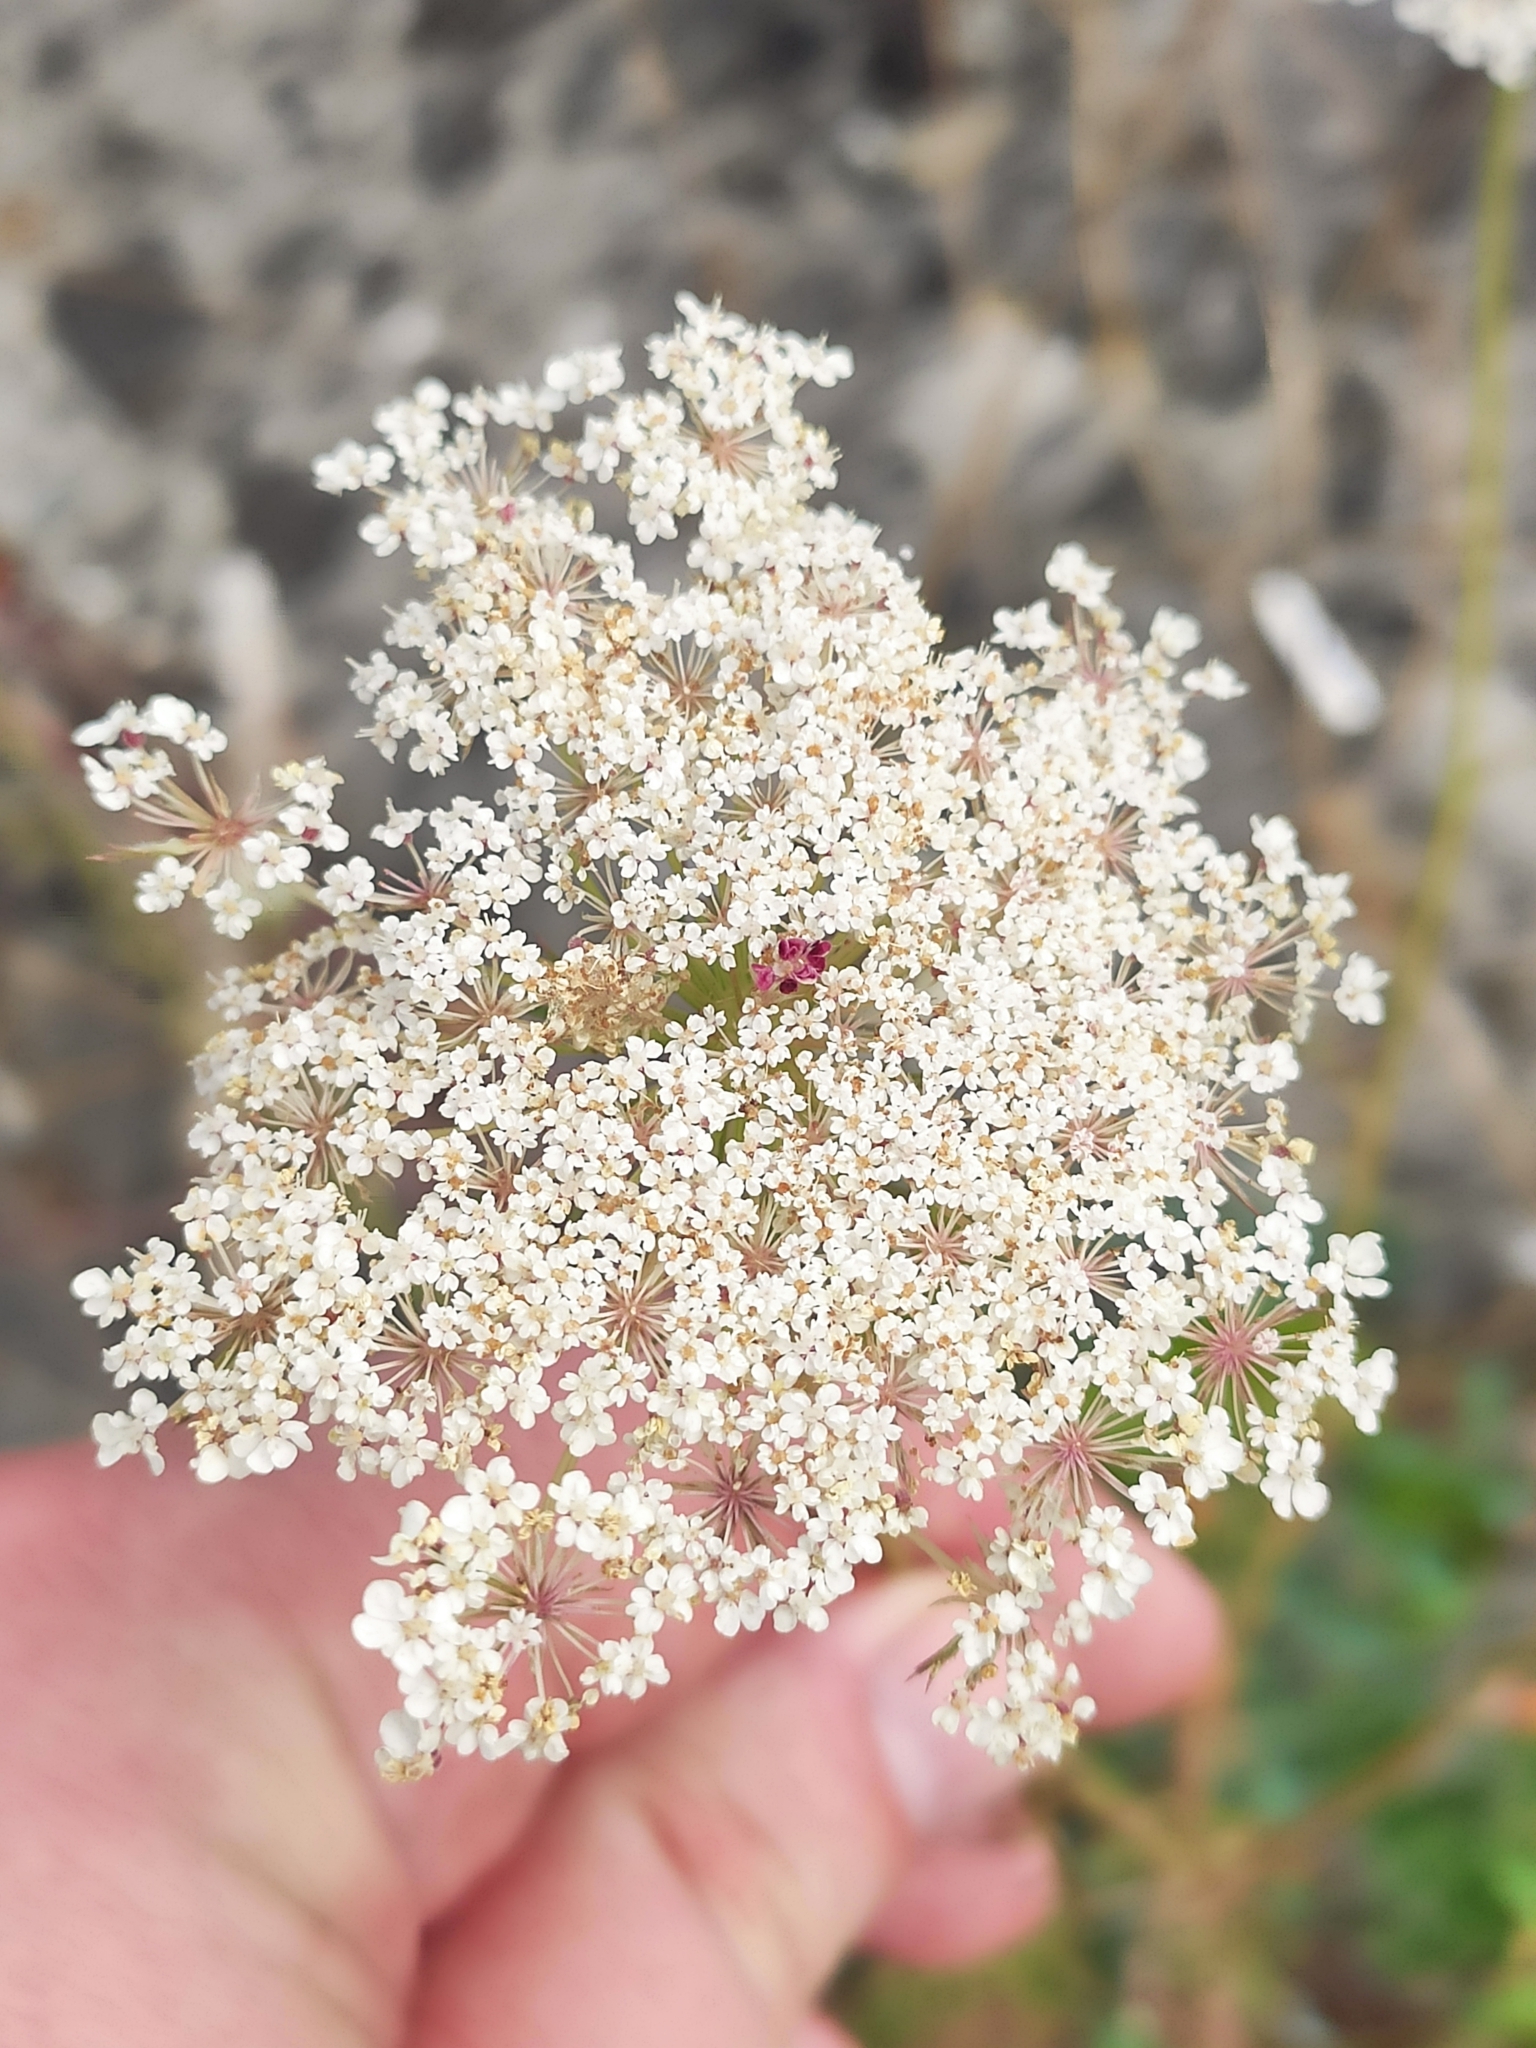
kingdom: Plantae
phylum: Tracheophyta
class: Magnoliopsida
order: Apiales
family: Apiaceae
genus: Daucus
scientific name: Daucus carota
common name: Wild carrot
